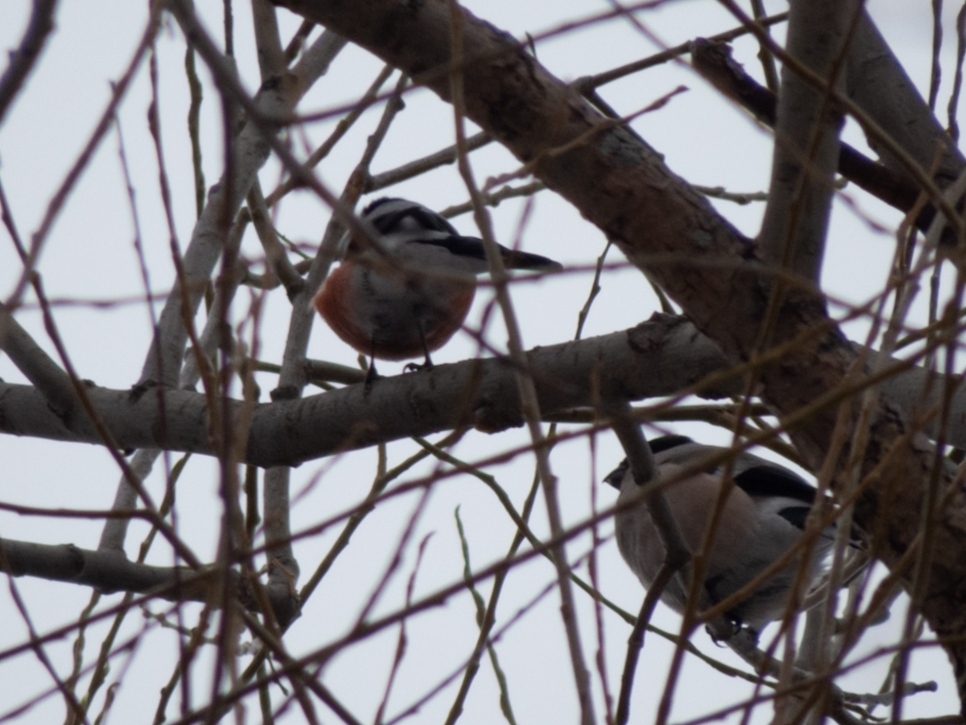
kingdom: Animalia
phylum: Chordata
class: Aves
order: Passeriformes
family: Fringillidae
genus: Pyrrhula
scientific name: Pyrrhula pyrrhula
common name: Eurasian bullfinch
